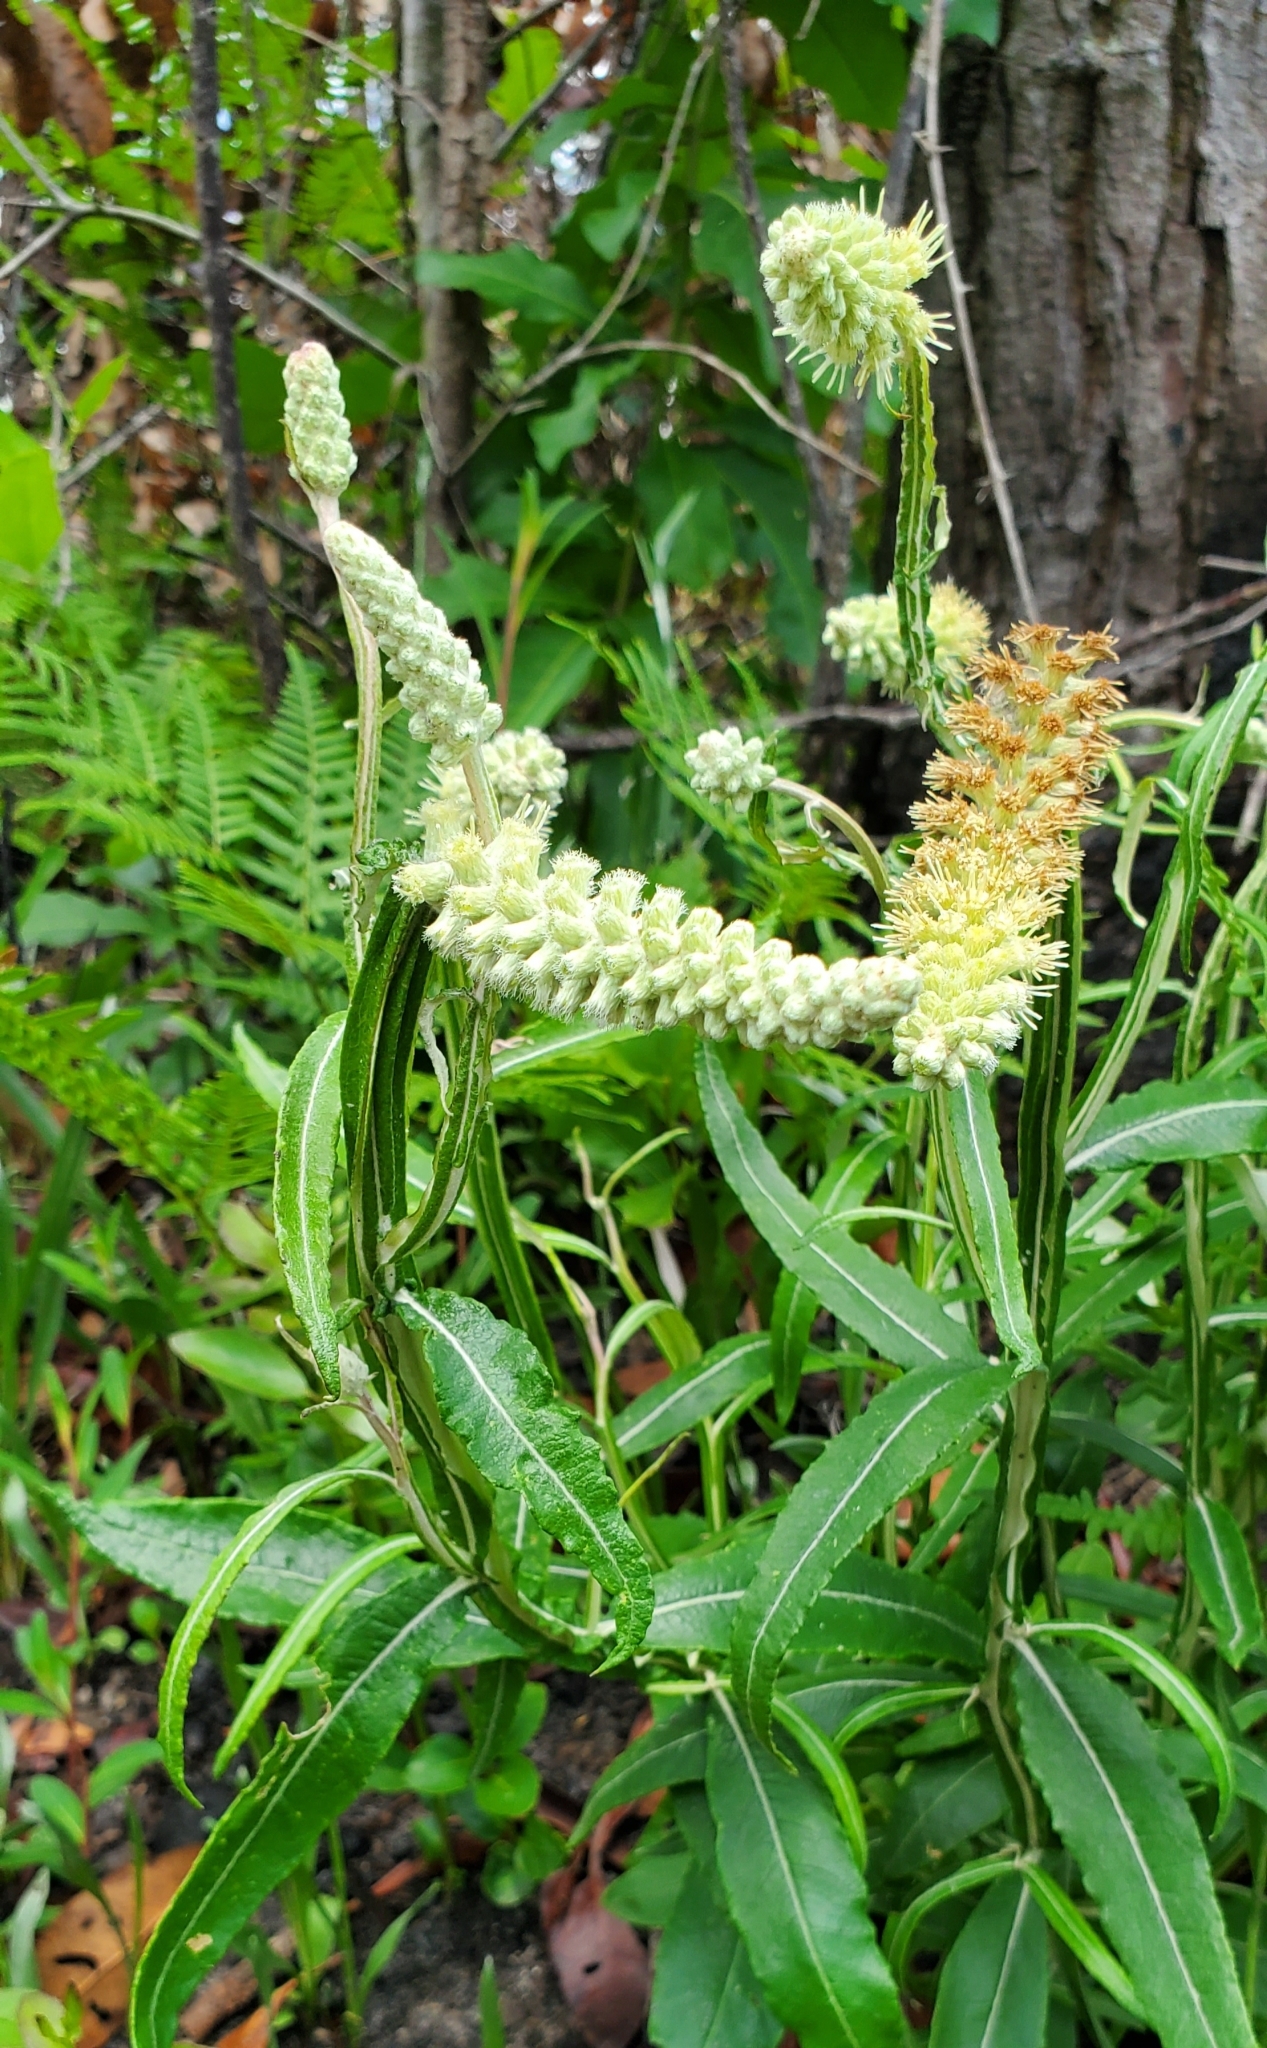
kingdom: Plantae
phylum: Tracheophyta
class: Magnoliopsida
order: Asterales
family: Asteraceae
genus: Pterocaulon
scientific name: Pterocaulon pycnostachyum
